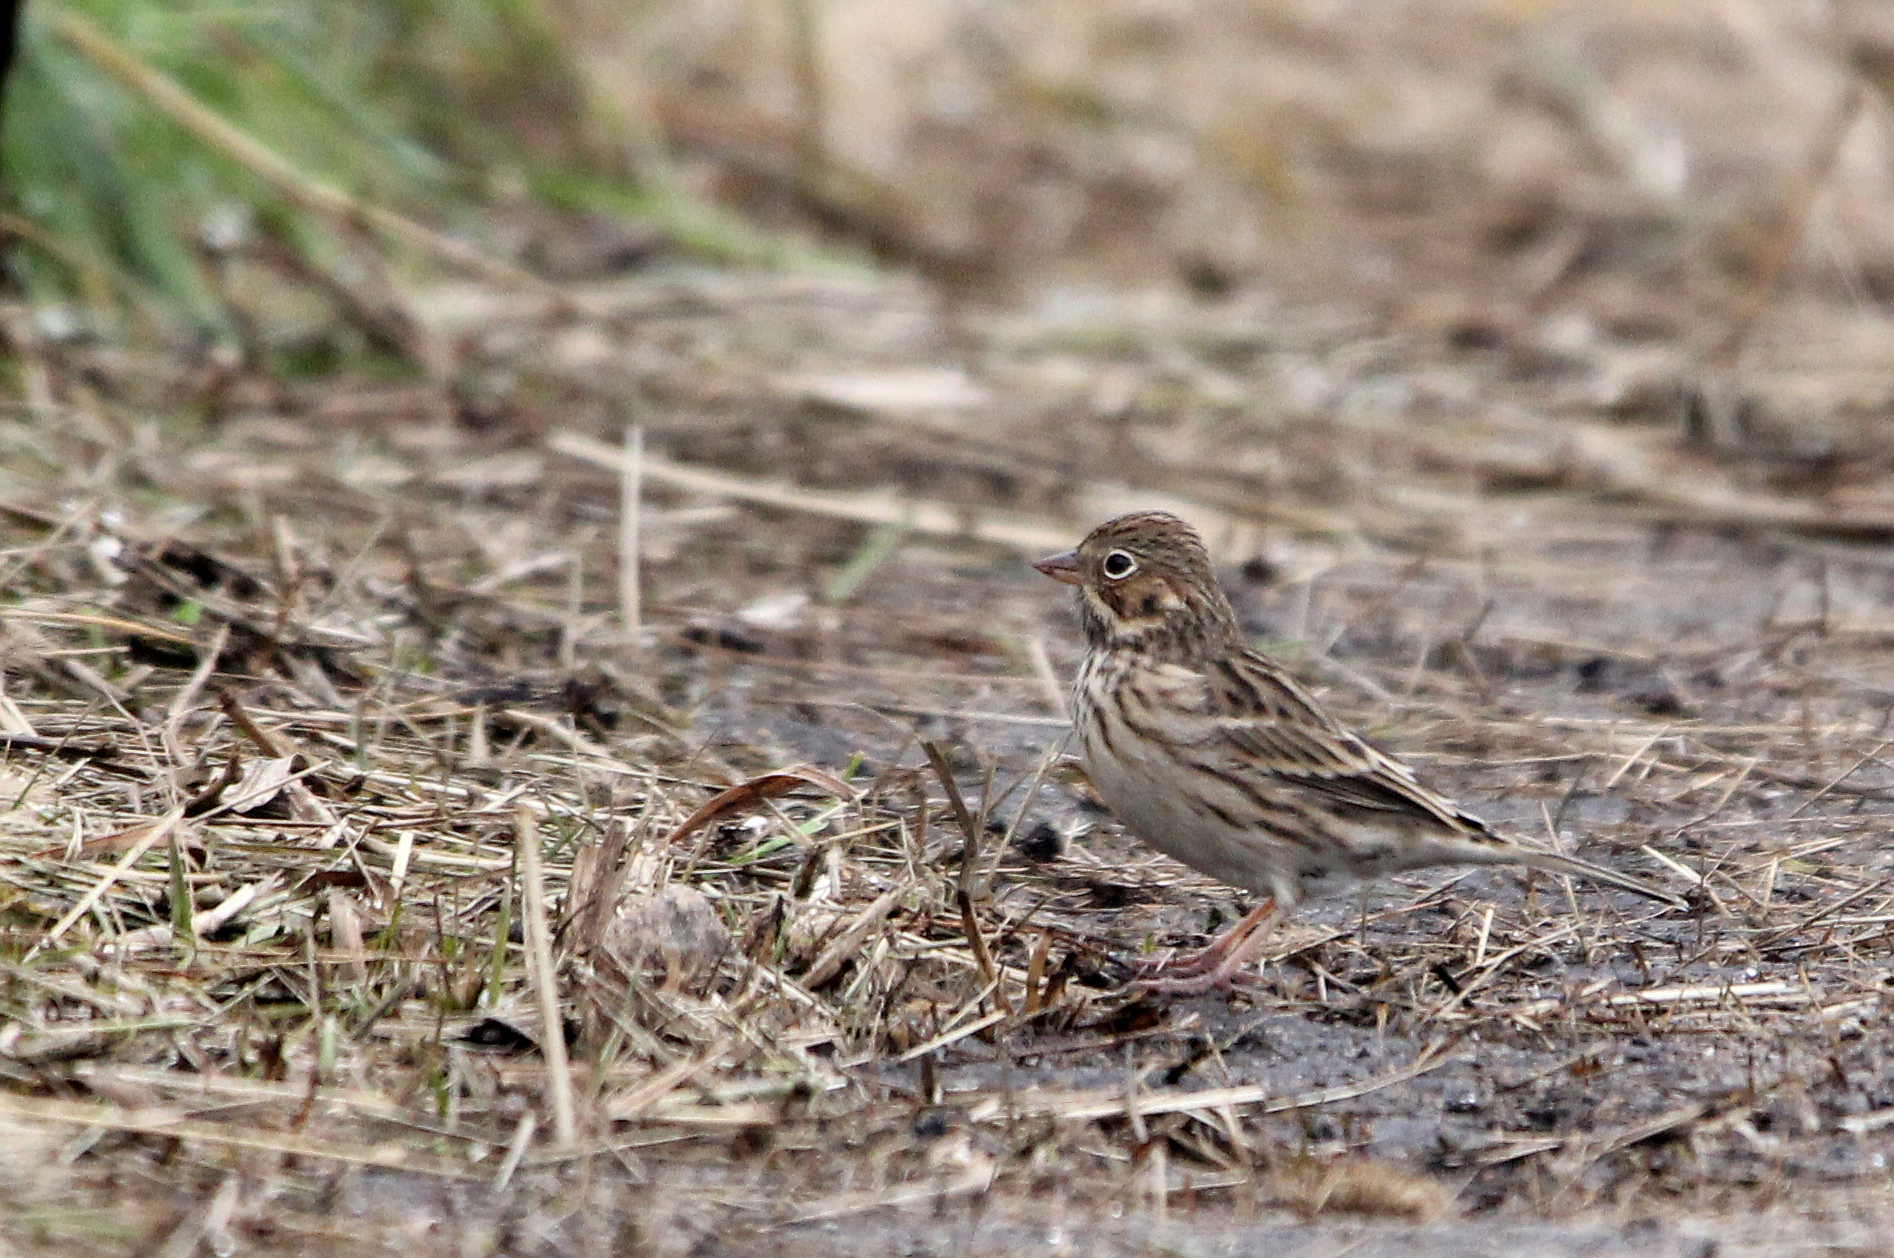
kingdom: Animalia
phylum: Chordata
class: Aves
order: Passeriformes
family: Passerellidae
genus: Pooecetes
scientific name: Pooecetes gramineus
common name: Vesper sparrow
